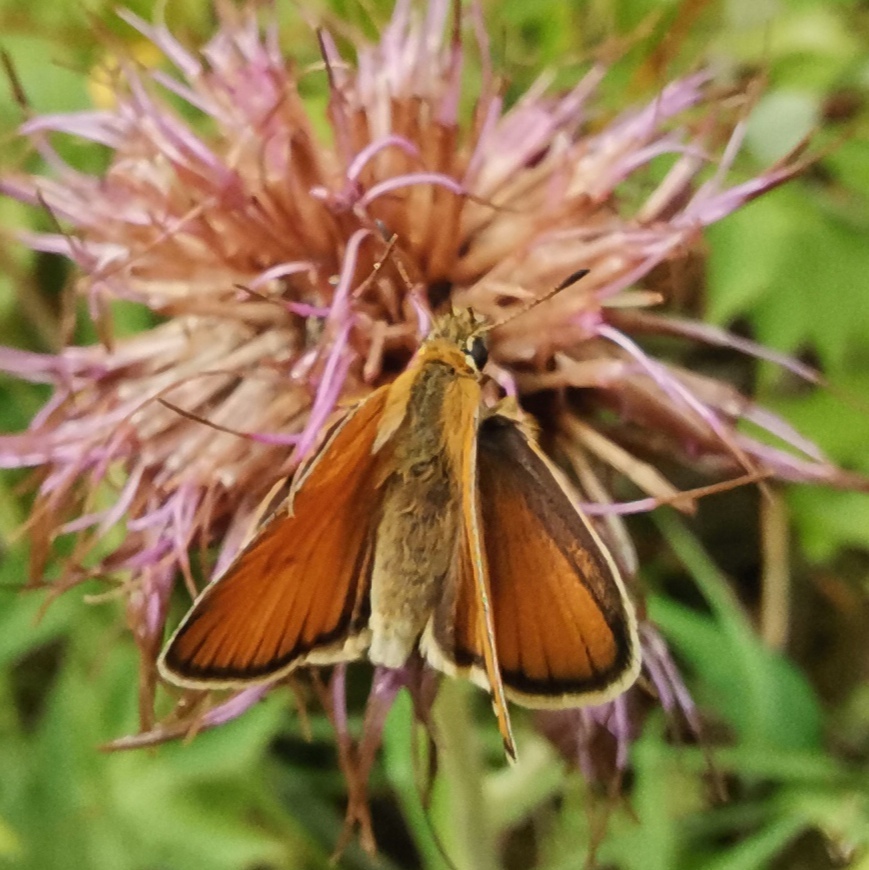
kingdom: Animalia
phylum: Arthropoda
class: Insecta
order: Lepidoptera
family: Hesperiidae
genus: Thymelicus
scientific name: Thymelicus lineola
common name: Essex skipper
